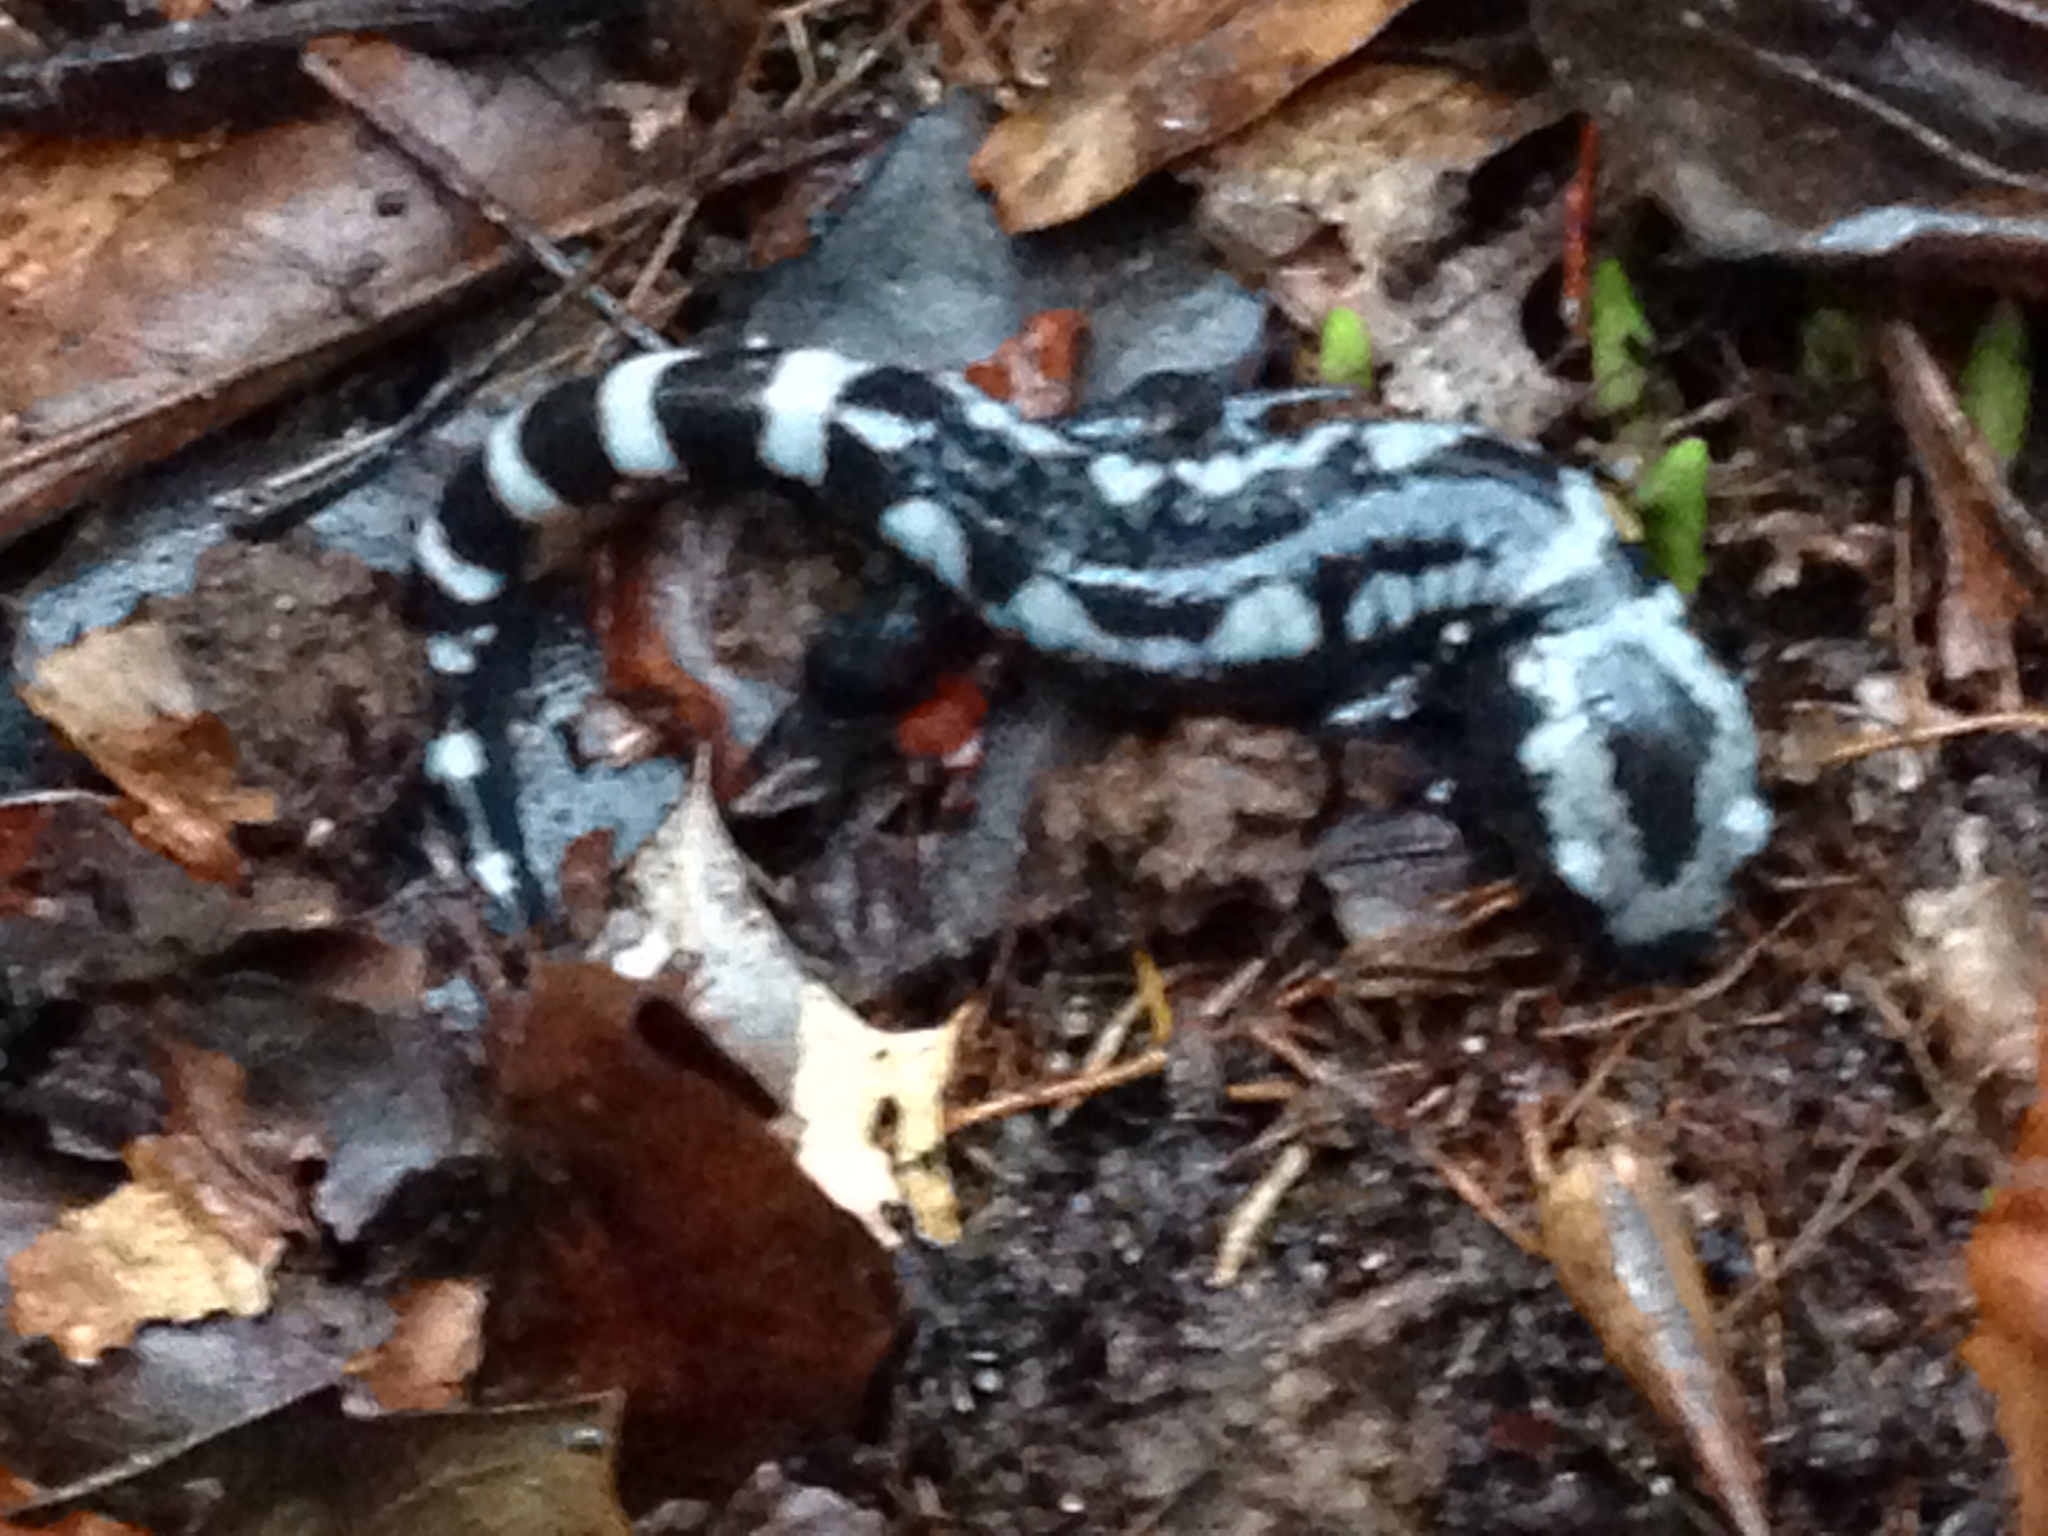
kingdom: Animalia
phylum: Chordata
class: Amphibia
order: Caudata
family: Ambystomatidae
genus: Ambystoma
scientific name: Ambystoma opacum
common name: Marbled salamander
